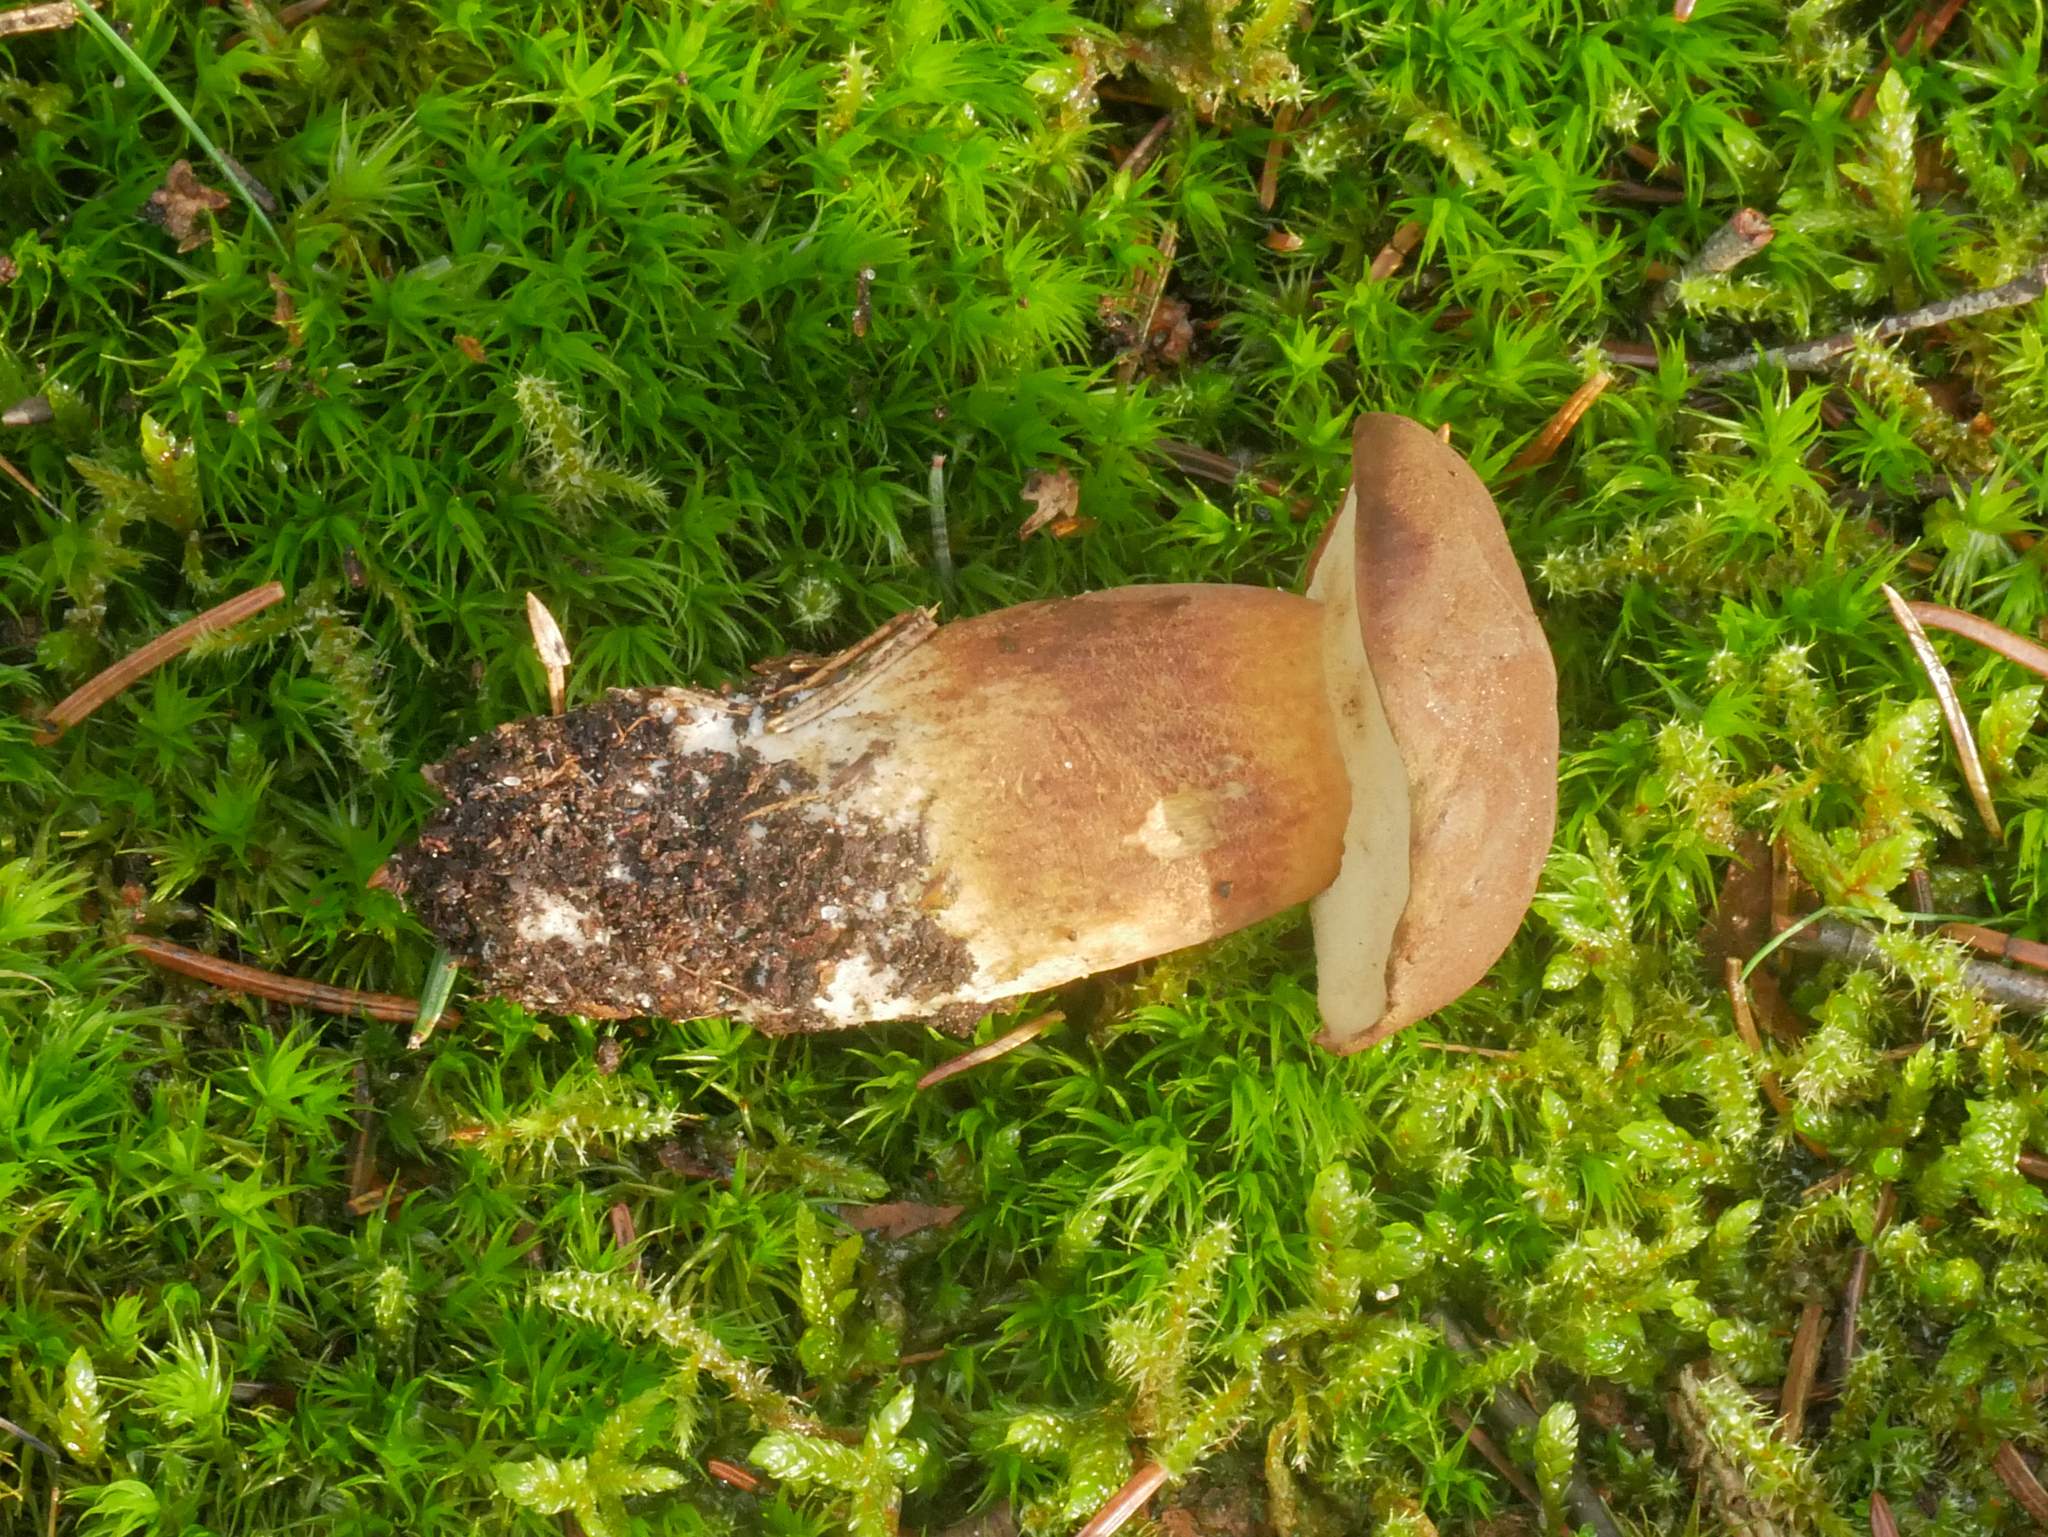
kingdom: Fungi
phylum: Basidiomycota
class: Agaricomycetes
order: Boletales
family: Boletaceae
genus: Imleria
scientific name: Imleria badia
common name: Bay bolete
